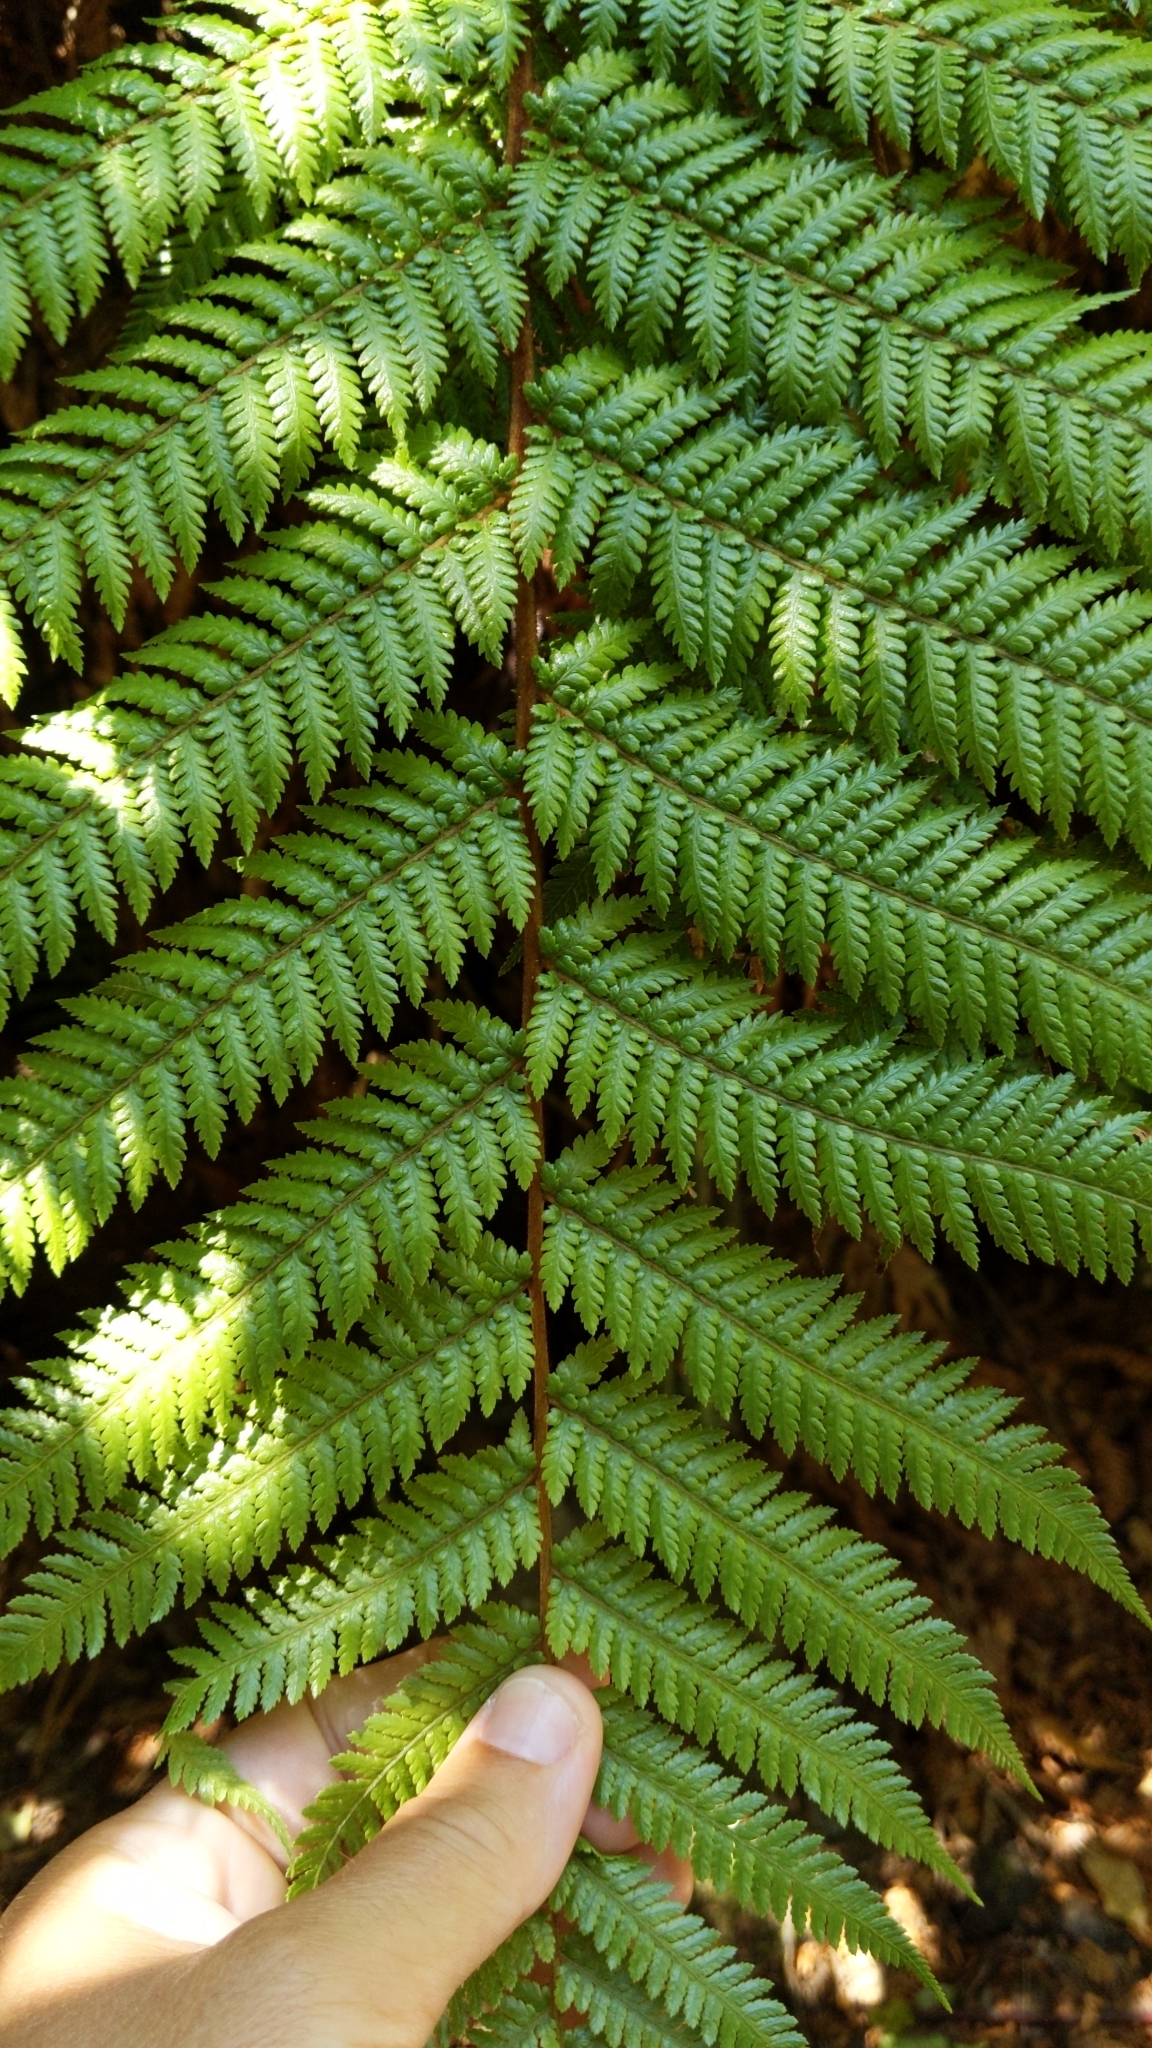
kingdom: Plantae
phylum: Tracheophyta
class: Polypodiopsida
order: Cyatheales
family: Dicksoniaceae
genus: Dicksonia
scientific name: Dicksonia squarrosa
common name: Hard treefern
